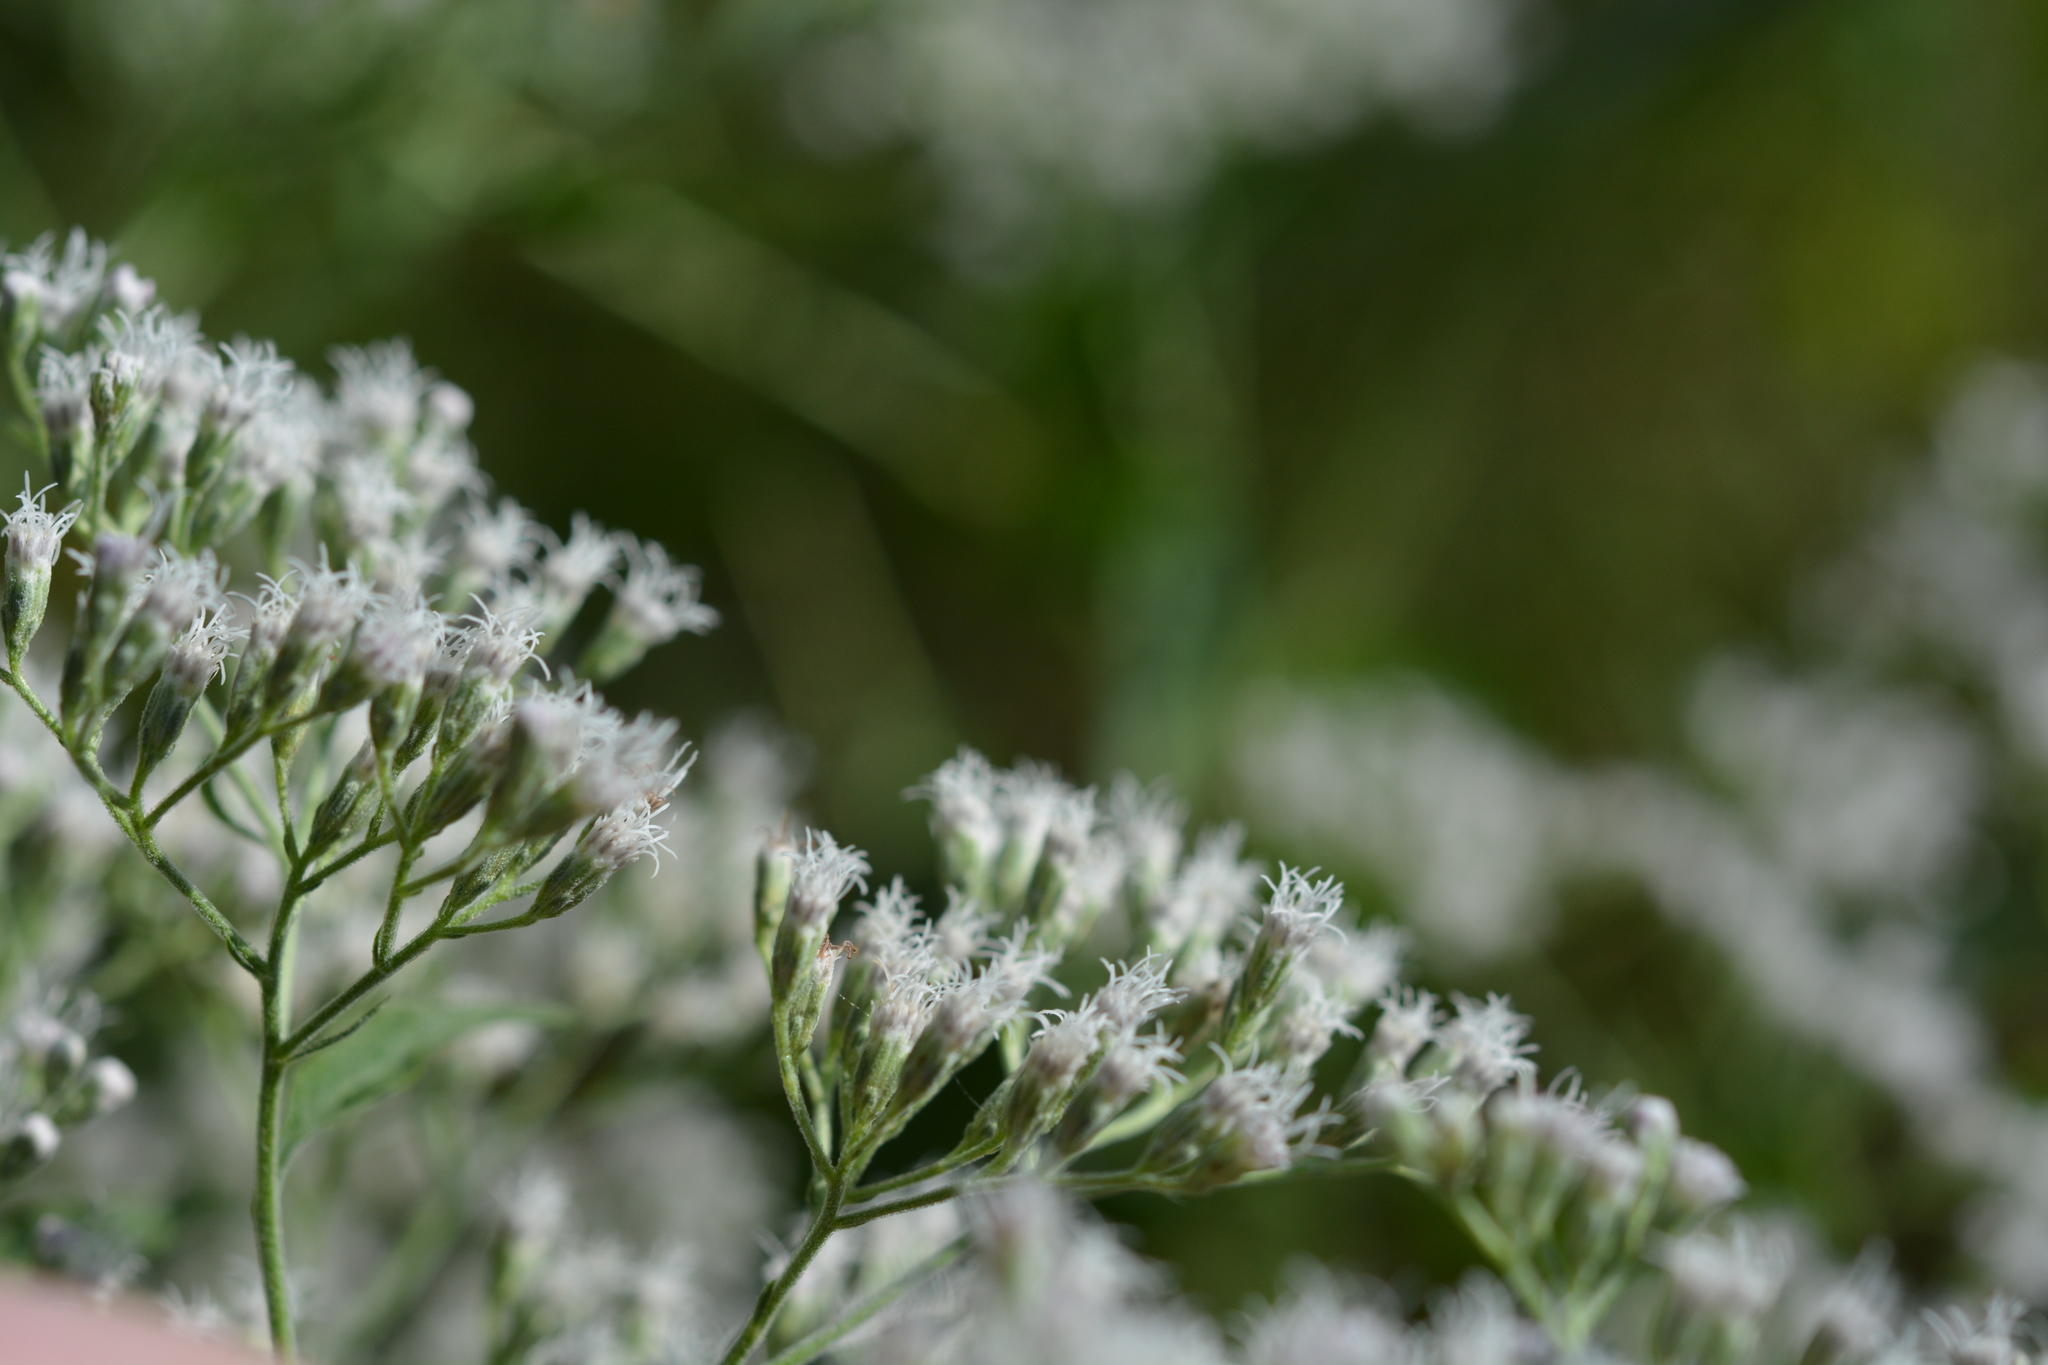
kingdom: Plantae
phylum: Tracheophyta
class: Magnoliopsida
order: Asterales
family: Asteraceae
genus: Eupatorium
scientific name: Eupatorium serotinum
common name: Late boneset
